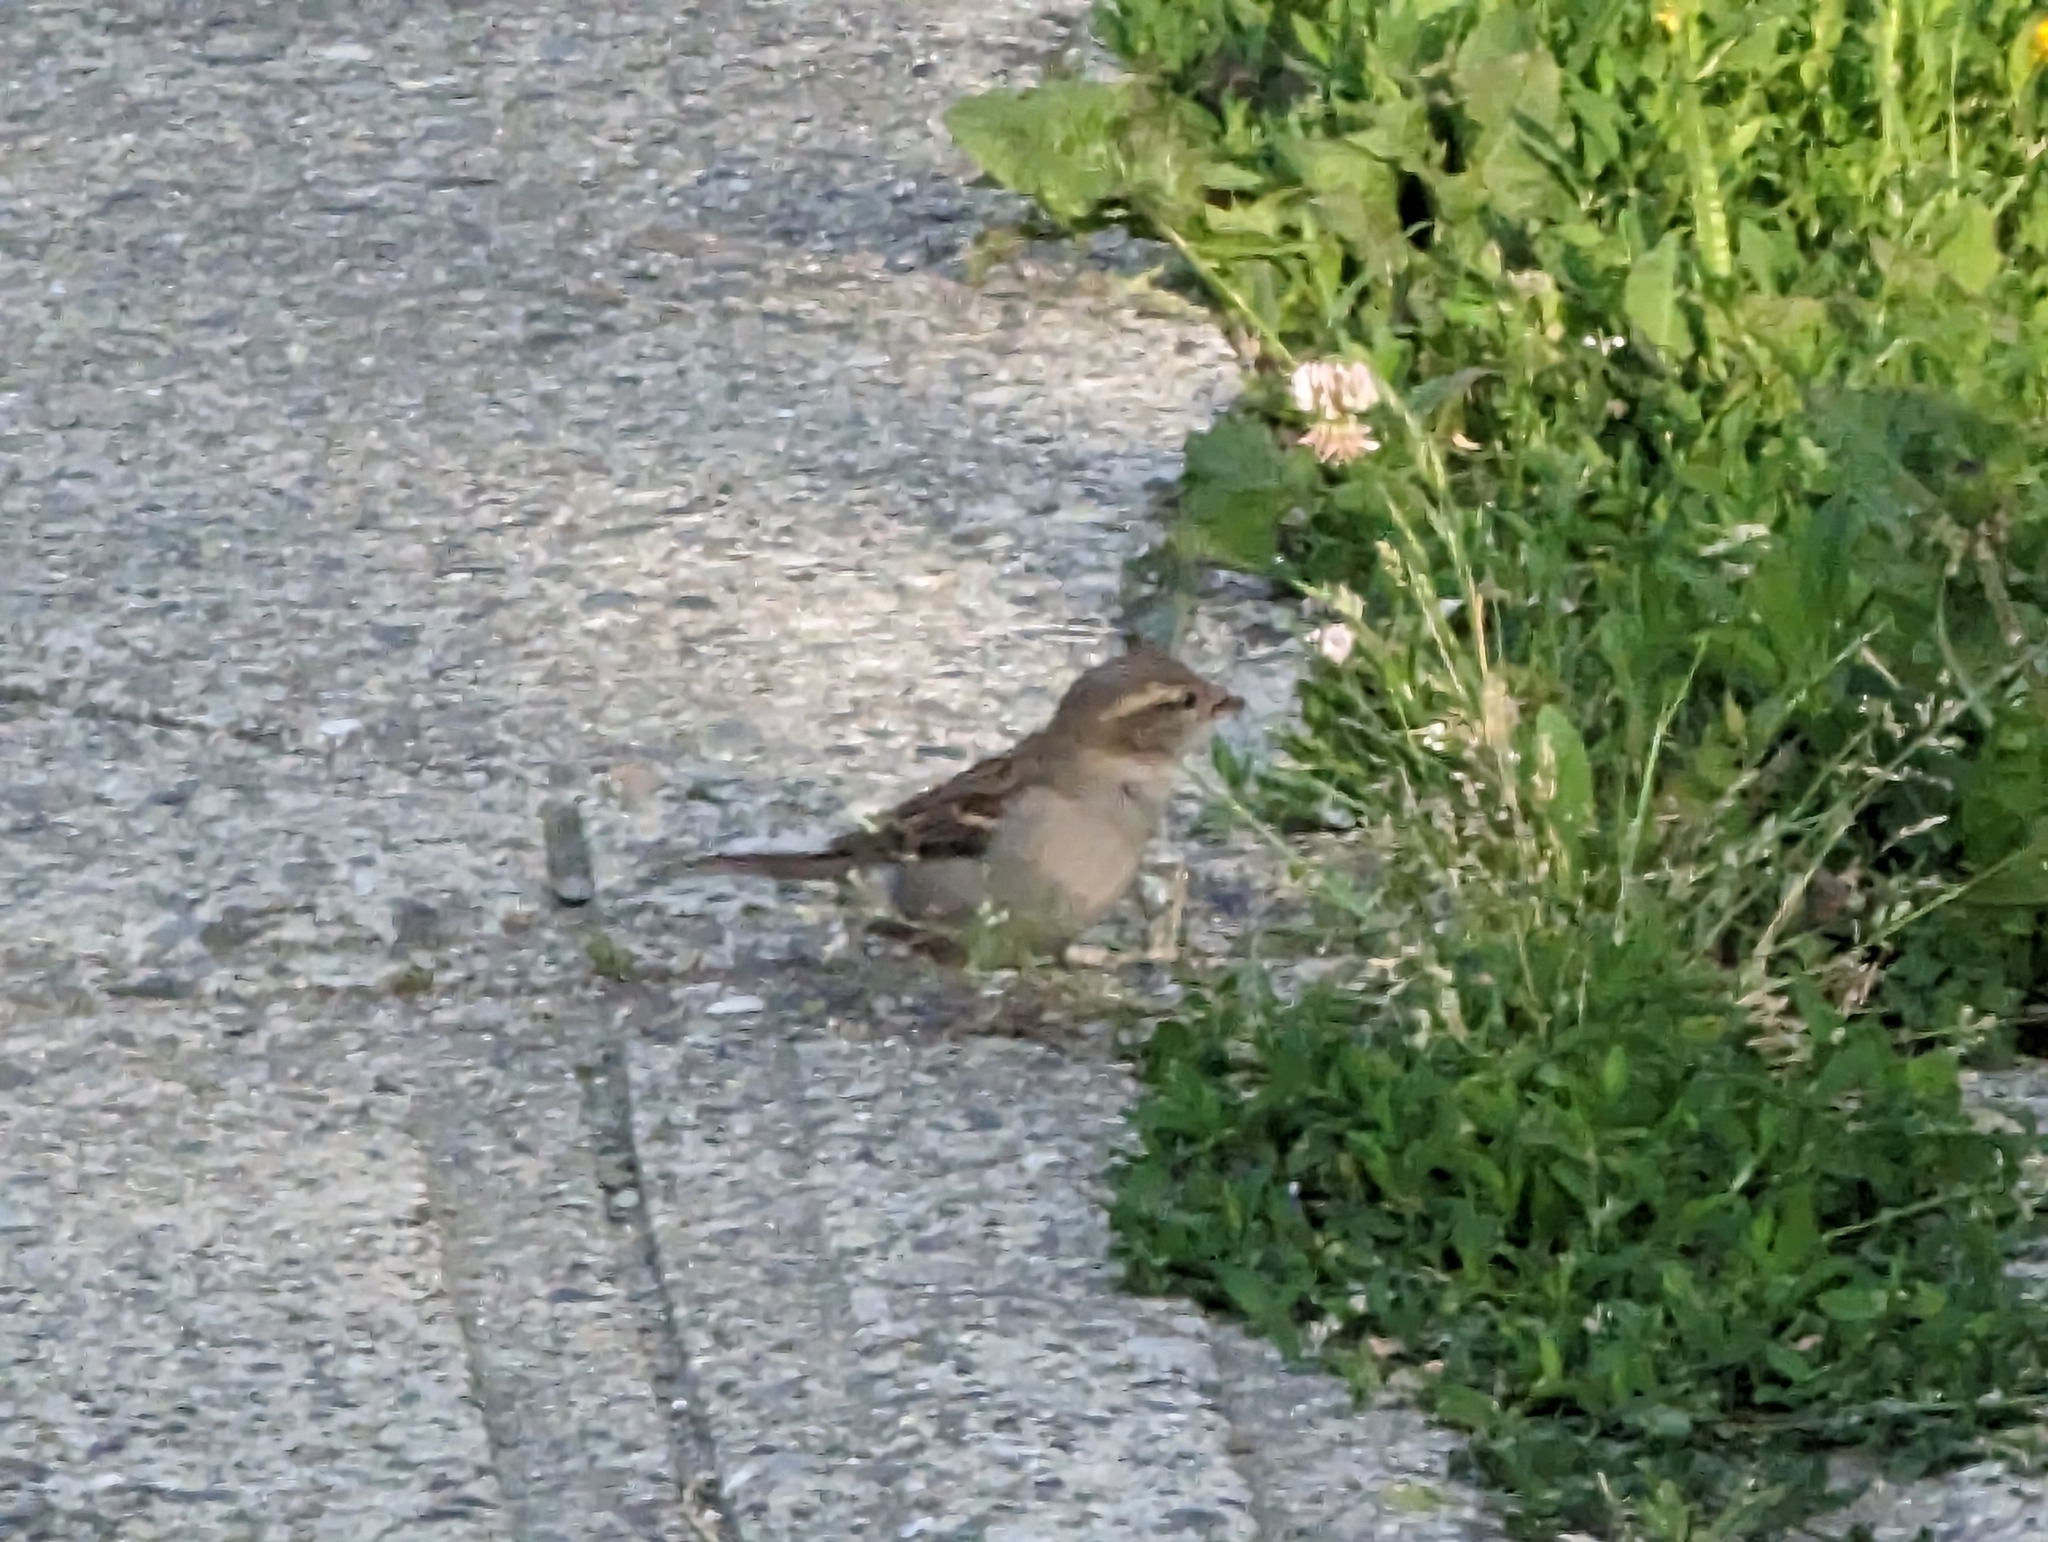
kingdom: Animalia
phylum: Chordata
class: Aves
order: Passeriformes
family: Passeridae
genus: Passer
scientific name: Passer domesticus
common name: House sparrow
